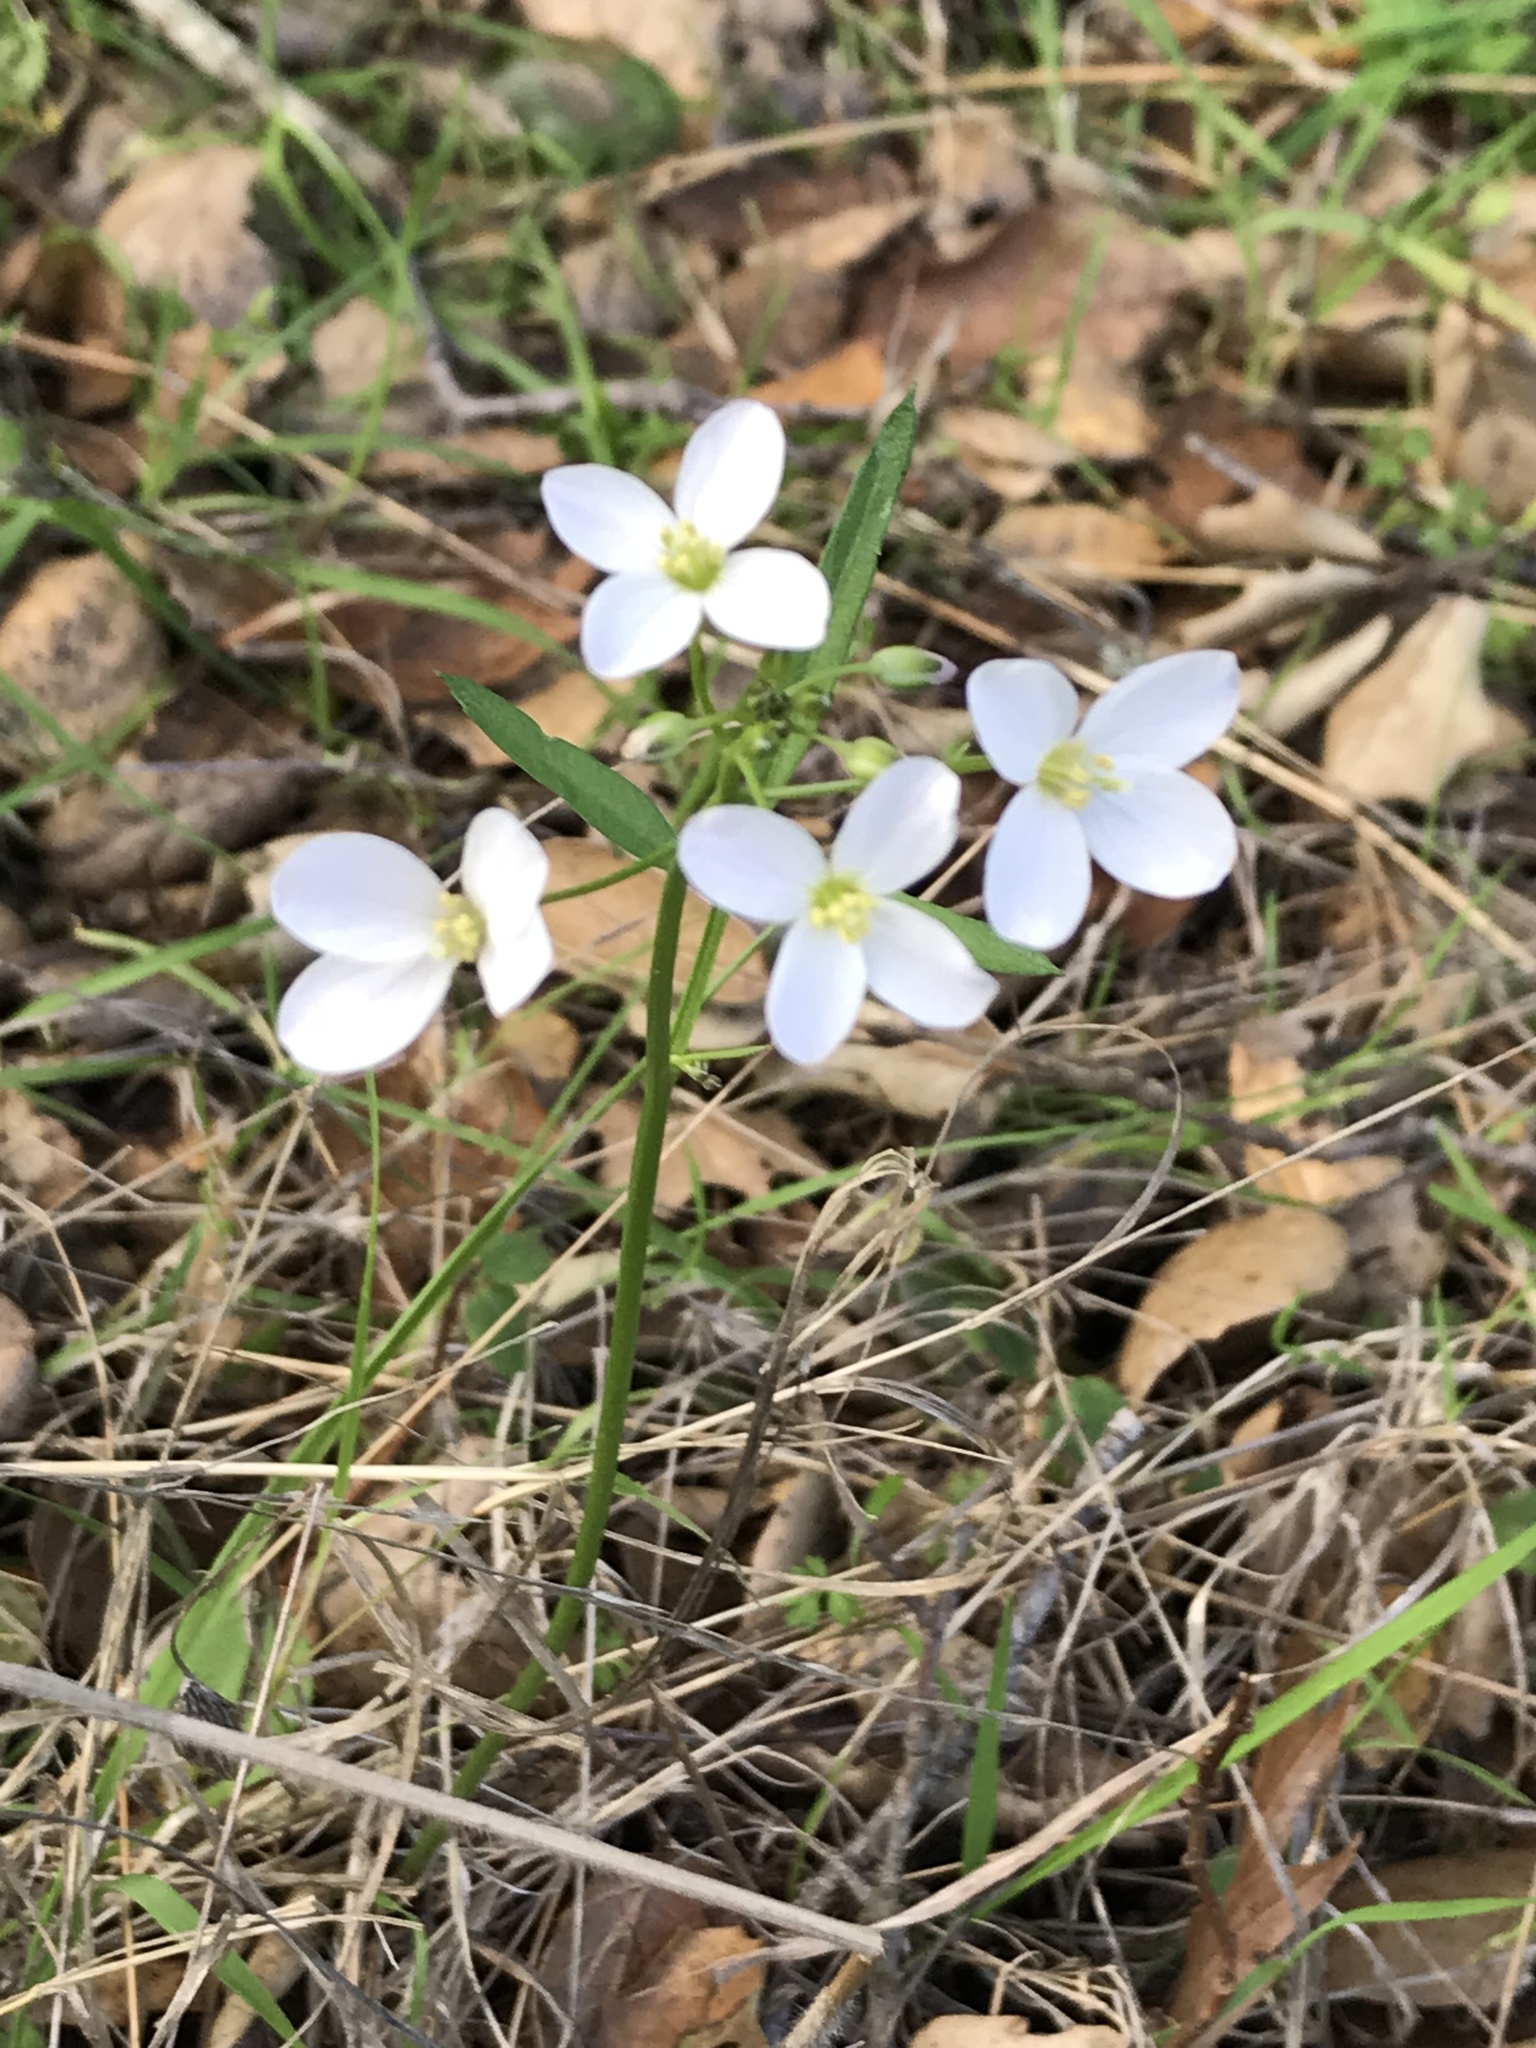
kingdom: Plantae
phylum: Tracheophyta
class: Magnoliopsida
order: Brassicales
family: Brassicaceae
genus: Cardamine
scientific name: Cardamine californica
